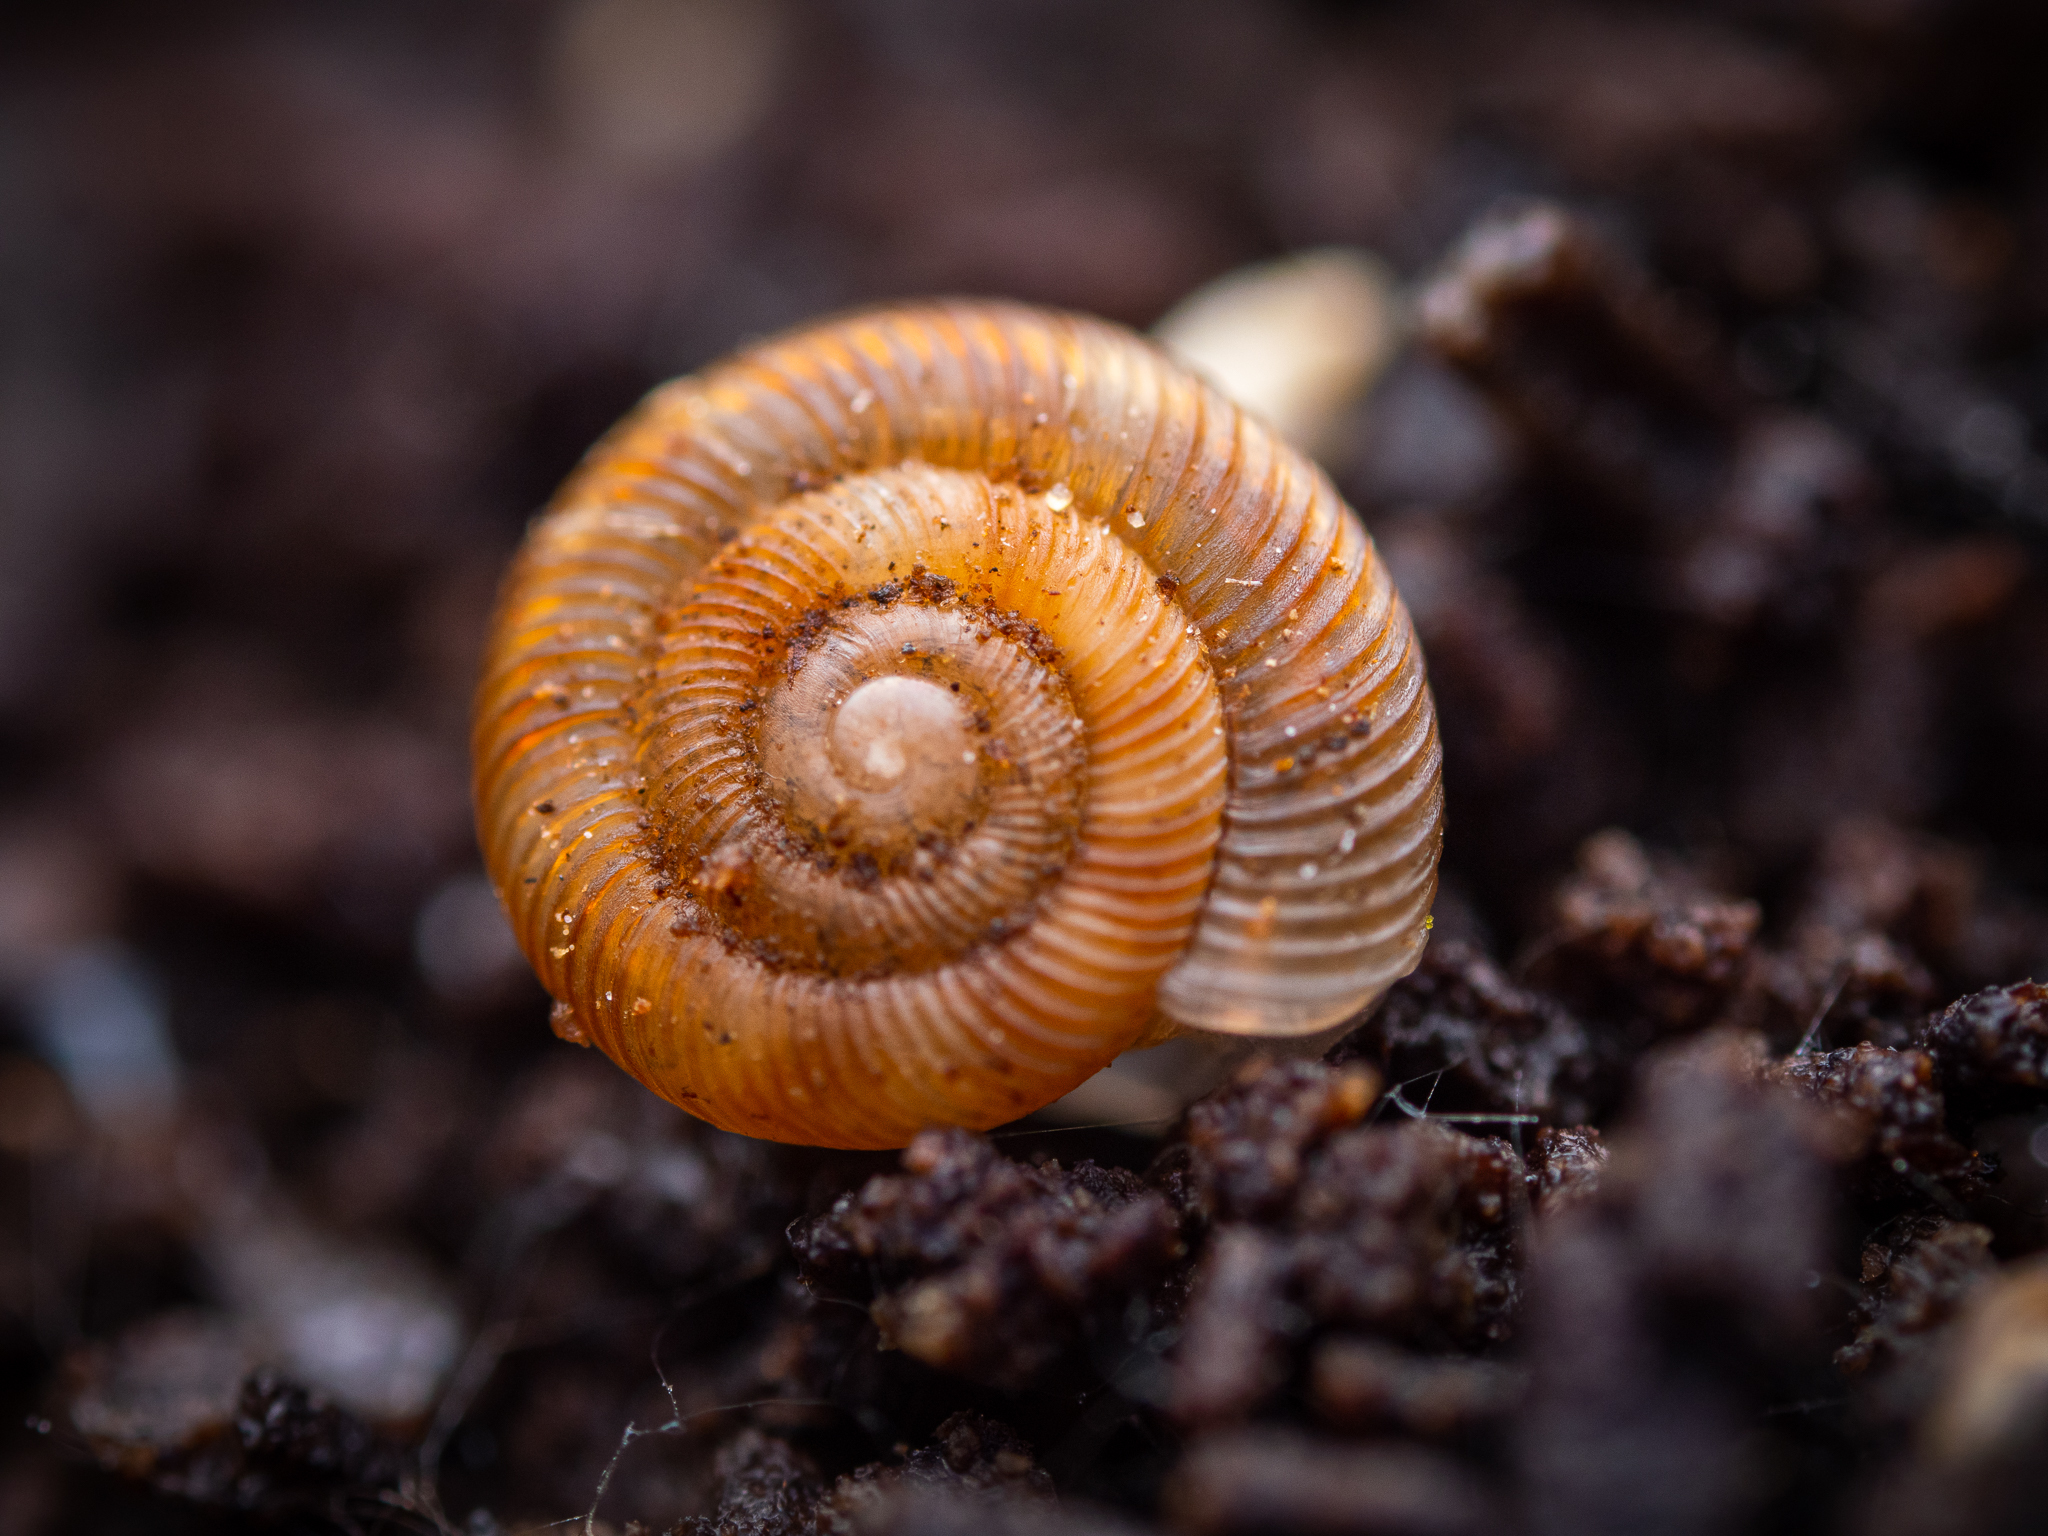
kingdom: Animalia
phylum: Mollusca
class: Gastropoda
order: Stylommatophora
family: Discidae
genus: Discus
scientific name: Discus rotundatus
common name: Rounded snail
